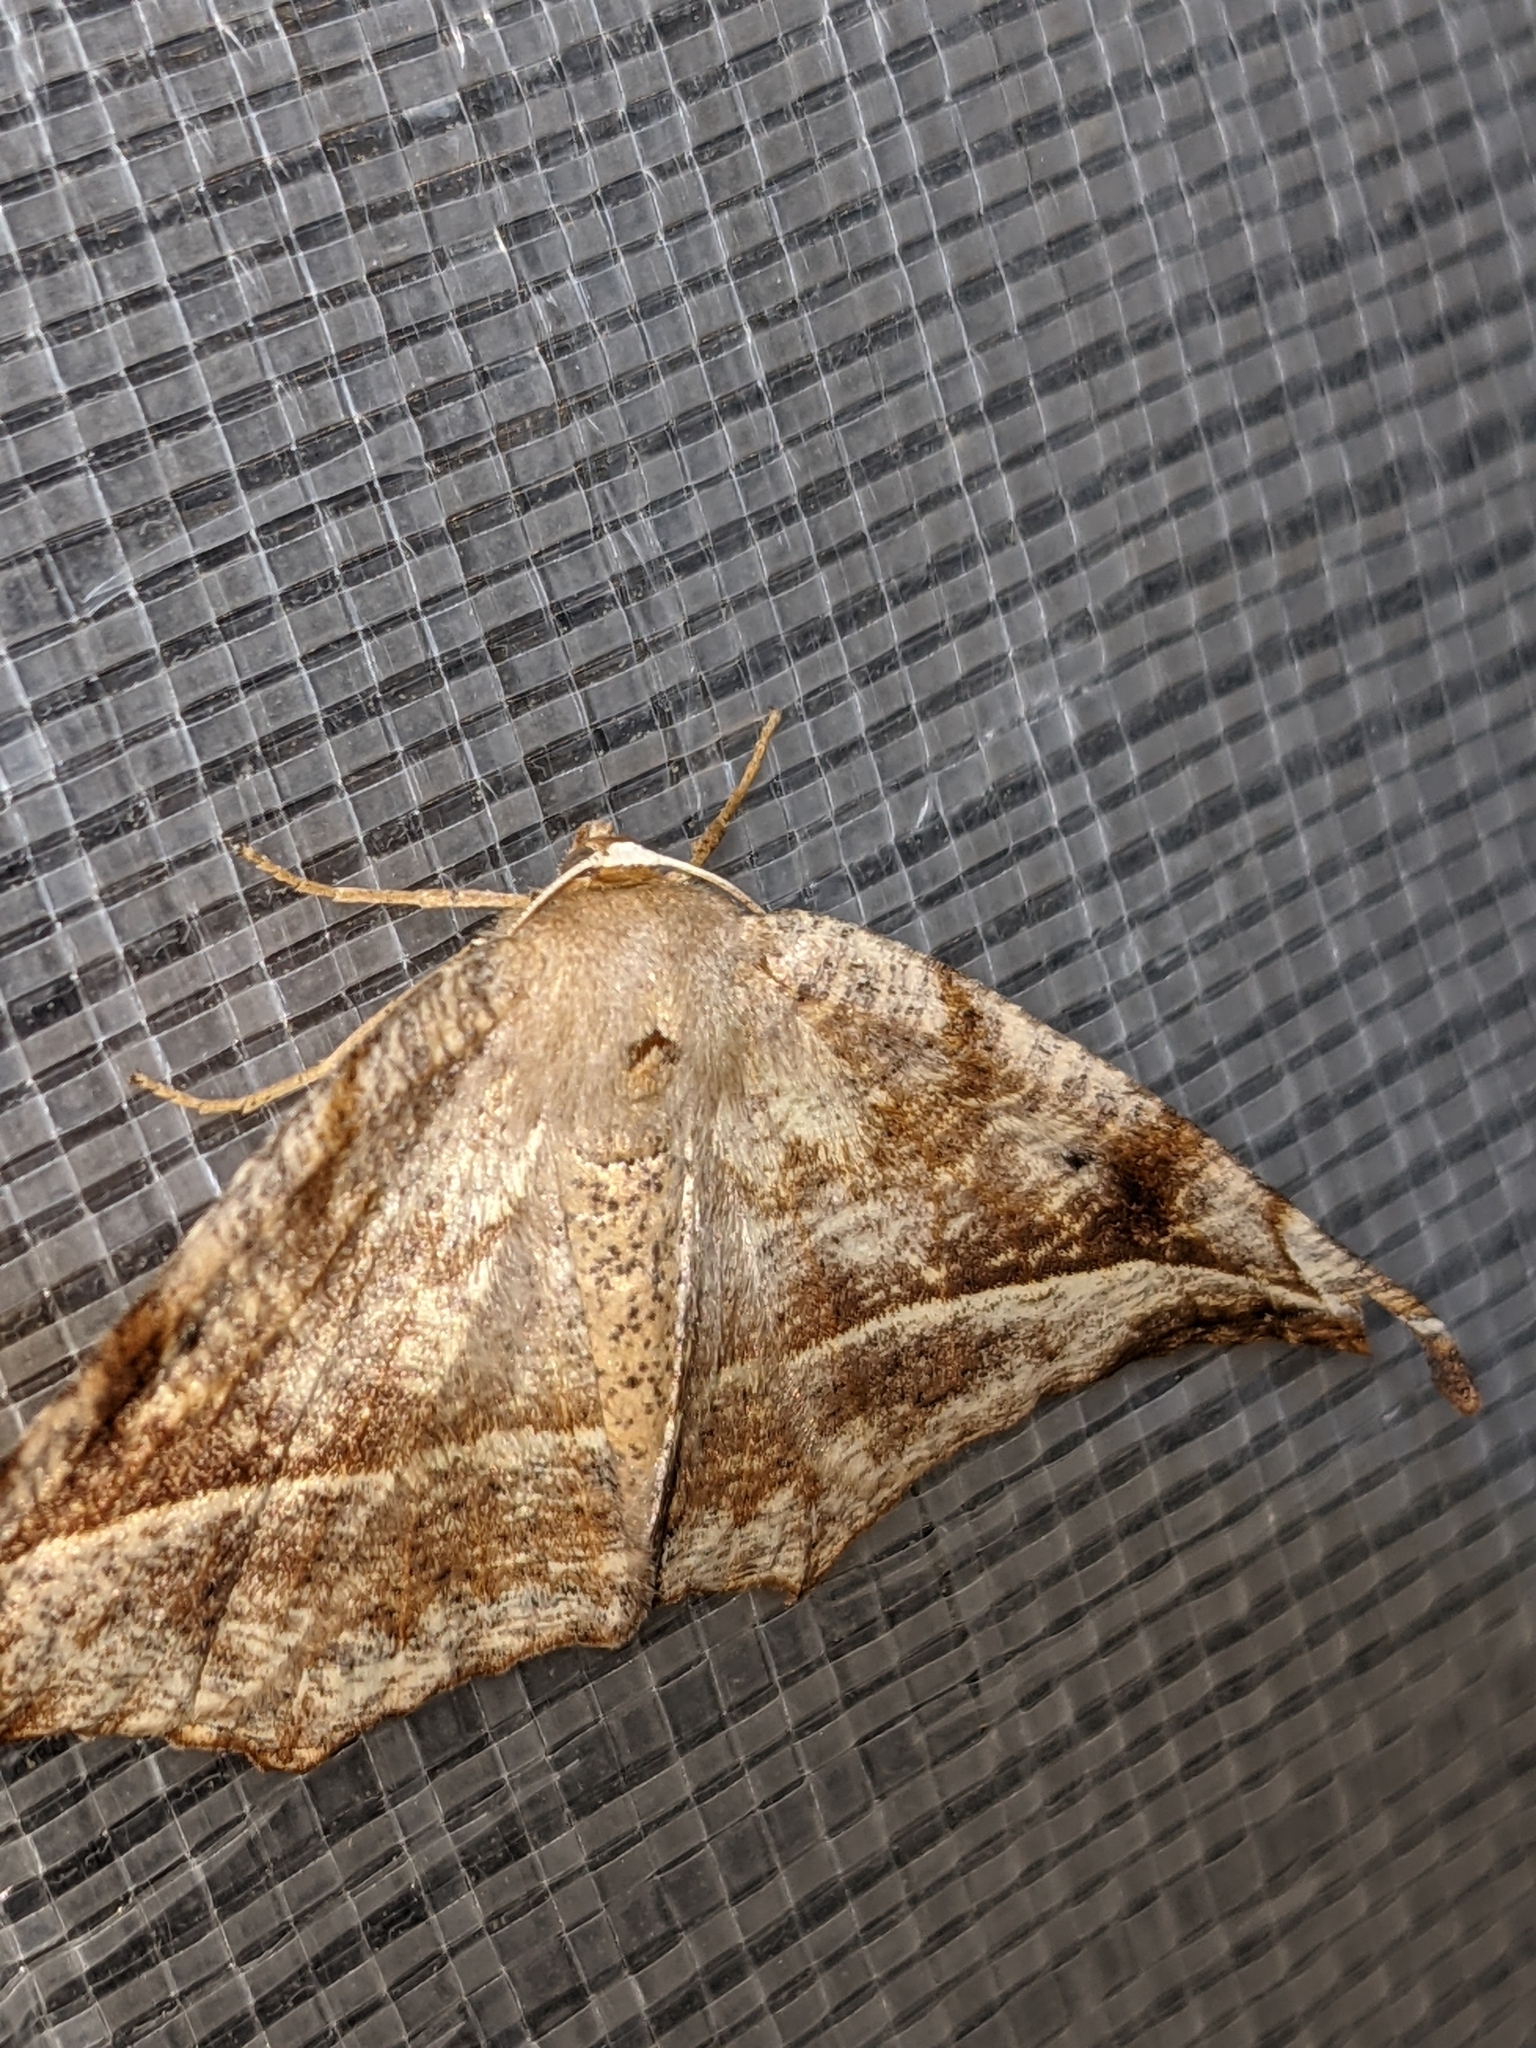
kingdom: Animalia
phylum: Arthropoda
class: Insecta
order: Lepidoptera
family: Geometridae
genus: Eutrapela
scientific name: Eutrapela clemataria
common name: Curved-toothed geometer
